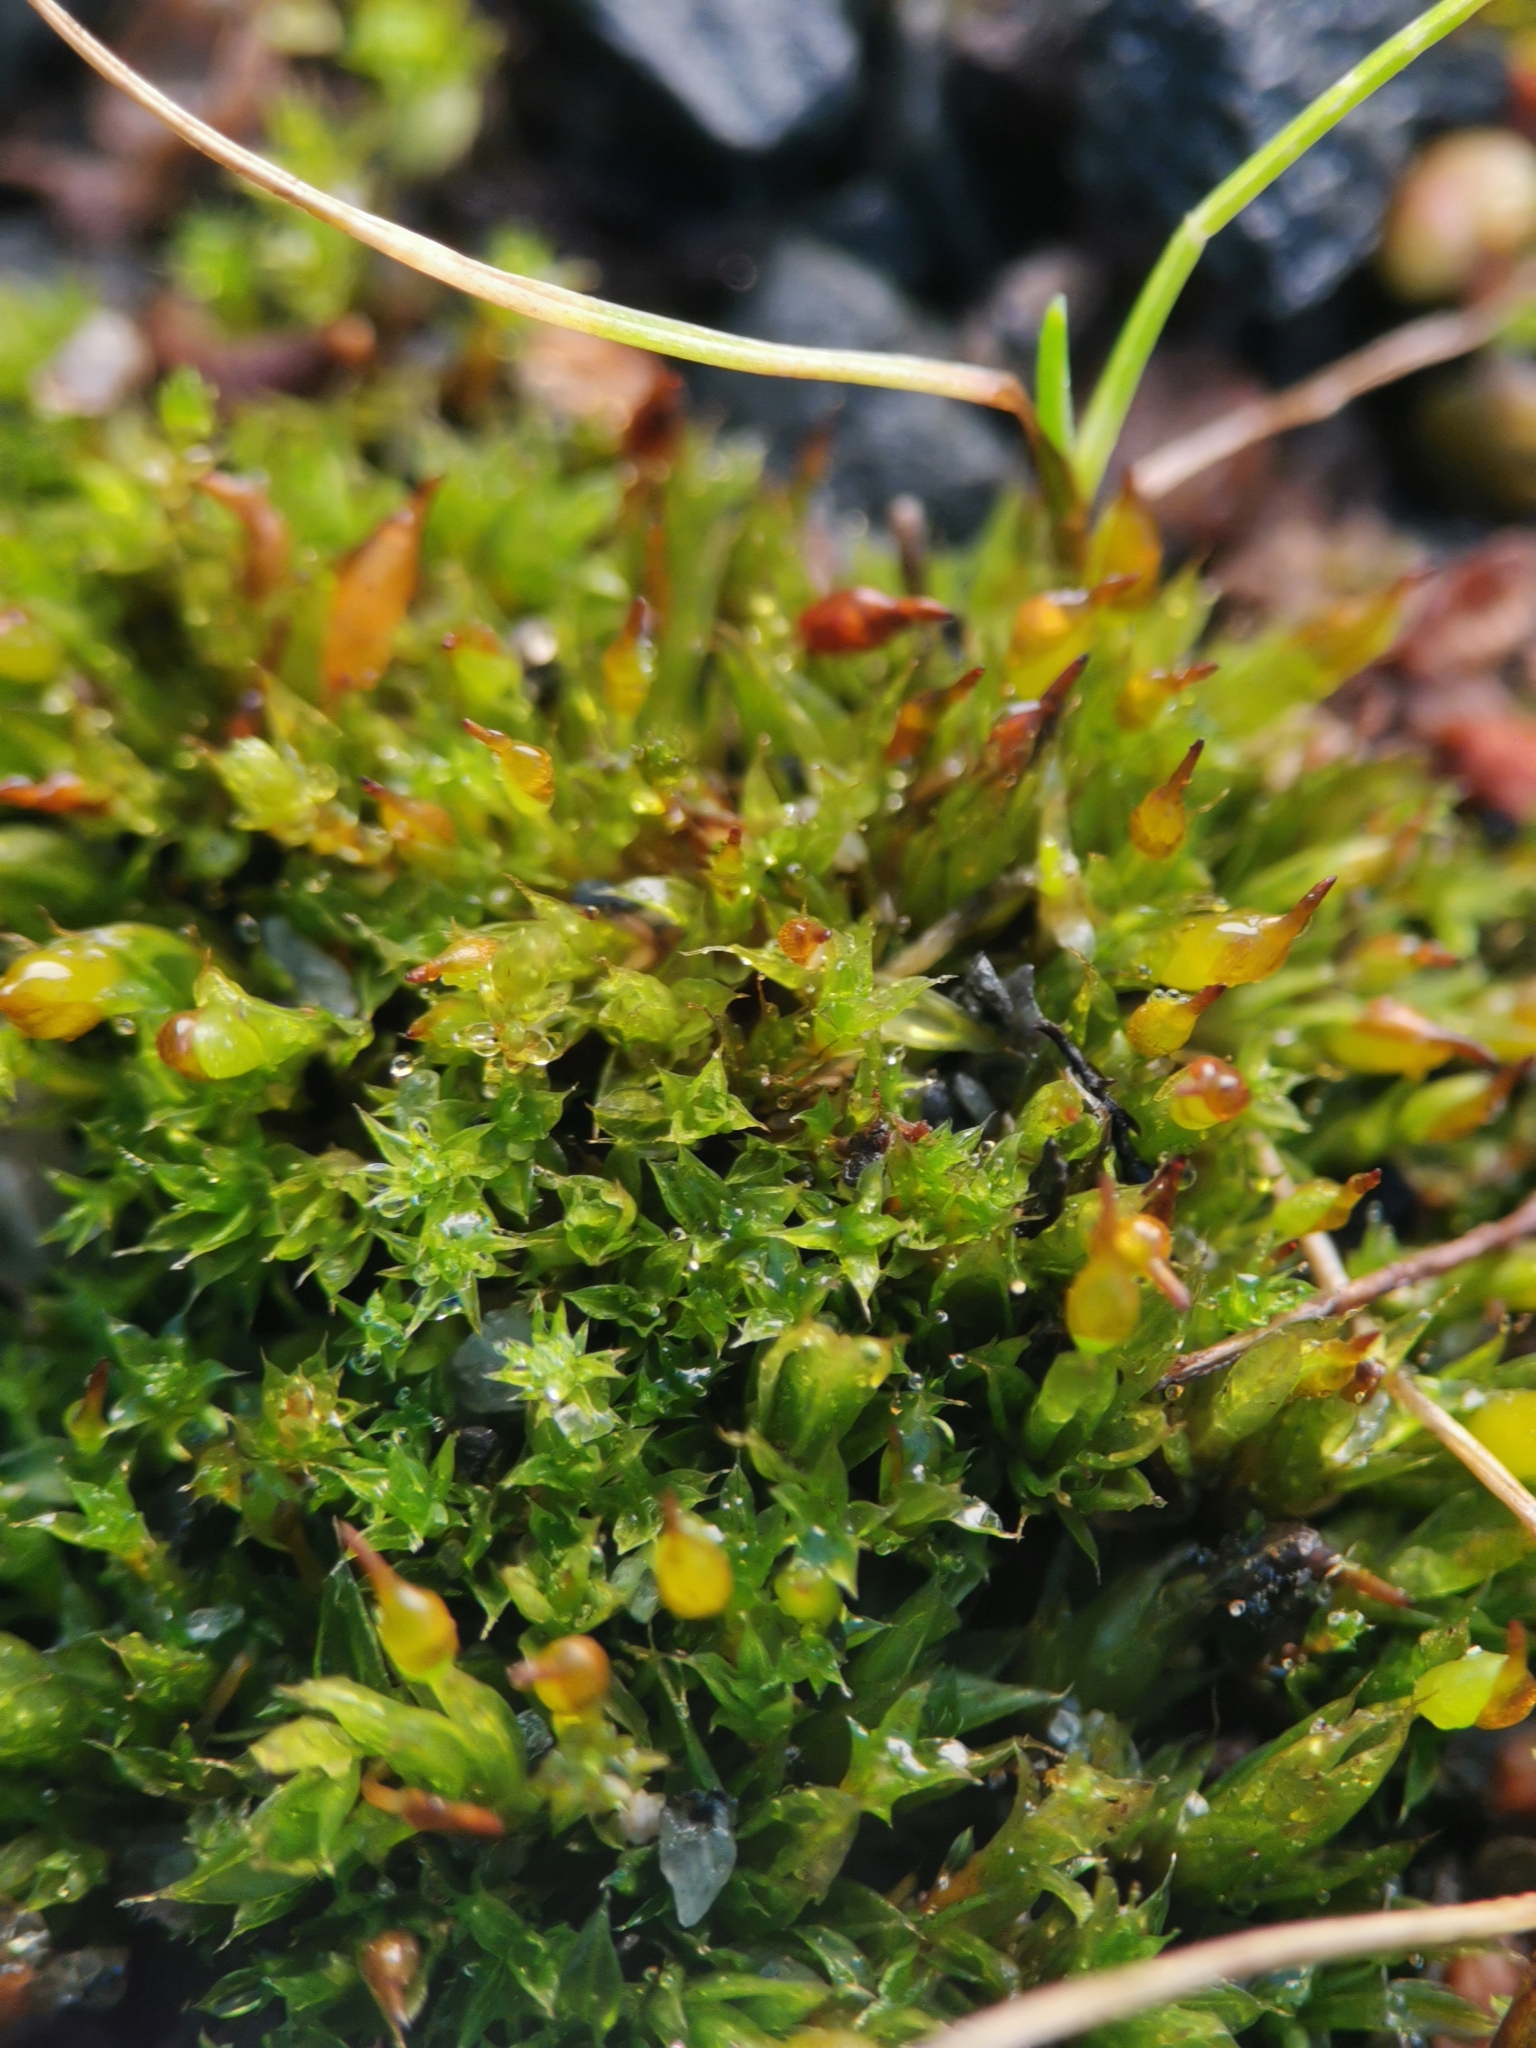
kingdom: Plantae
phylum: Bryophyta
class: Bryopsida
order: Pottiales
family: Pottiaceae
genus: Tortula
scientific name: Tortula protobryoides
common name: Tall pottia
